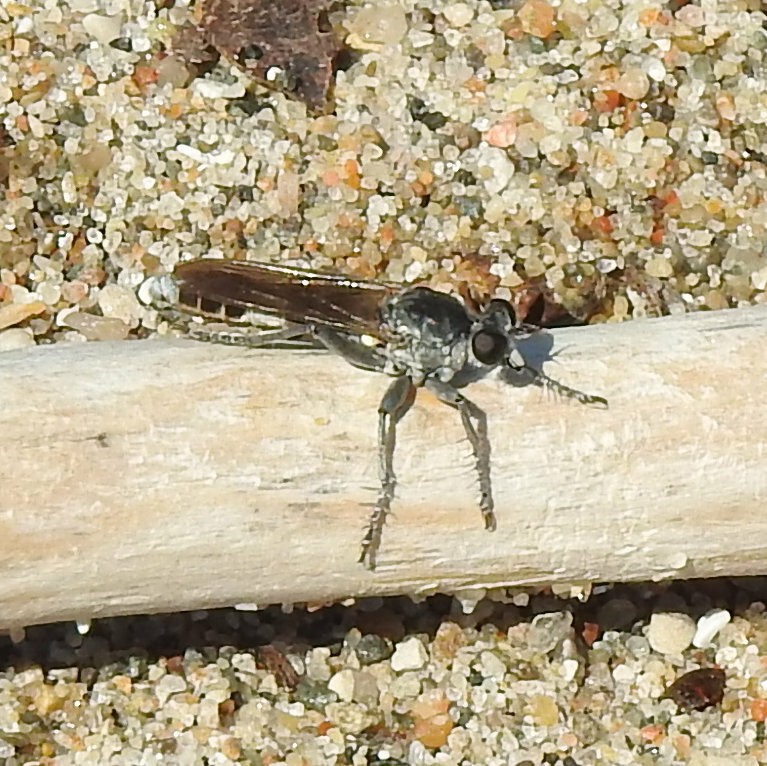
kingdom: Animalia
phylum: Arthropoda
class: Insecta
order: Diptera
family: Asilidae
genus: Stichopogon
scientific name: Stichopogon trifasciatus
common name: Three-banded robber fly
